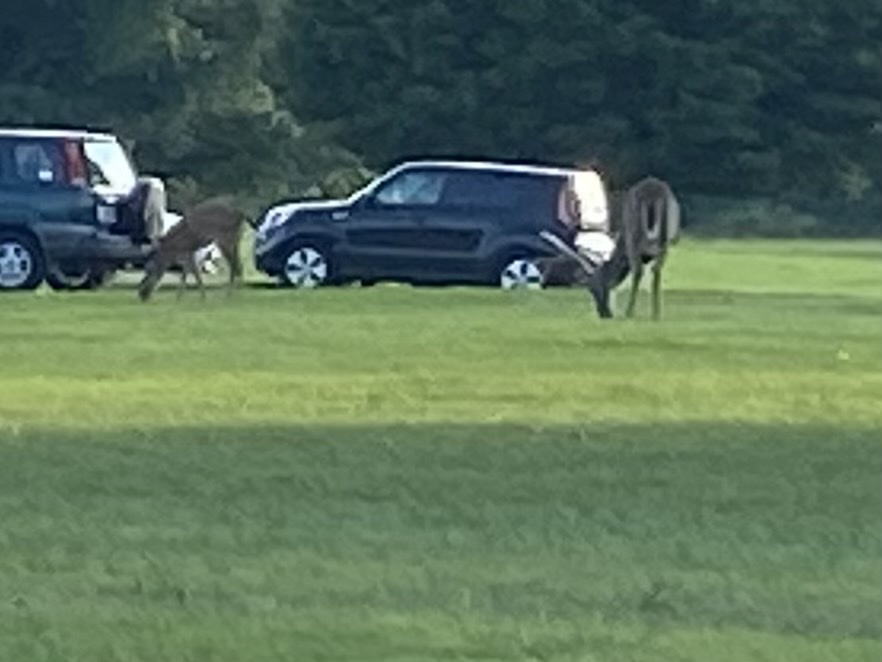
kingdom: Animalia
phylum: Chordata
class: Mammalia
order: Artiodactyla
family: Cervidae
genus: Odocoileus
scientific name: Odocoileus virginianus
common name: White-tailed deer
